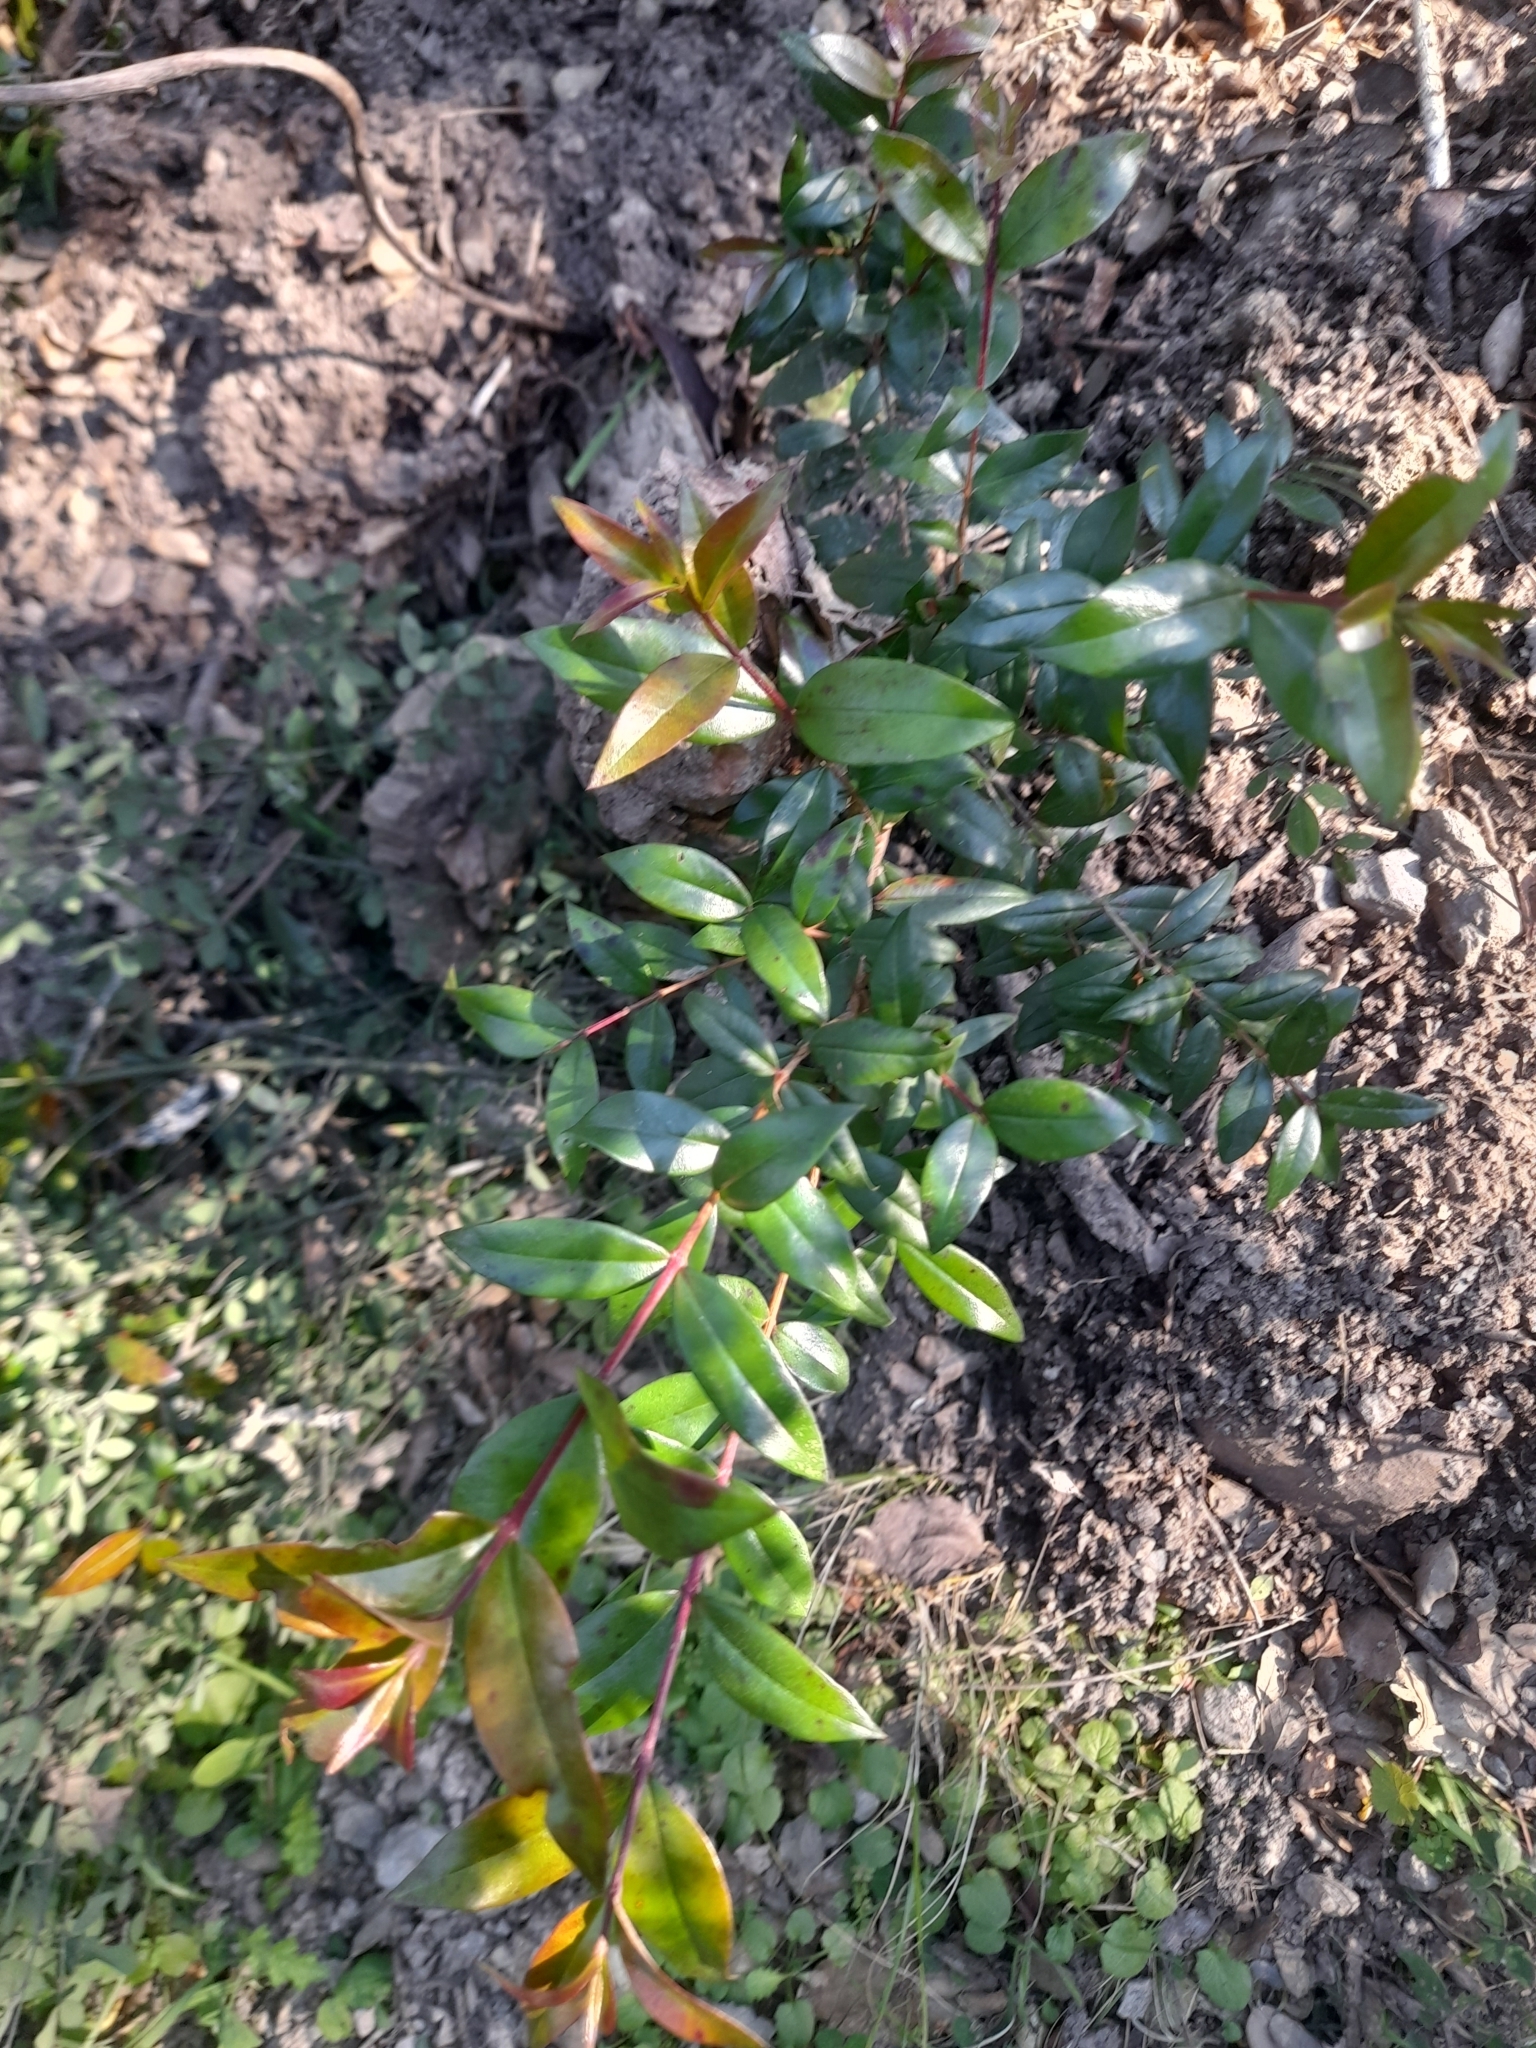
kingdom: Plantae
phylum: Tracheophyta
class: Magnoliopsida
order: Myrtales
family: Myrtaceae
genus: Myrtus
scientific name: Myrtus communis
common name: Myrtle
